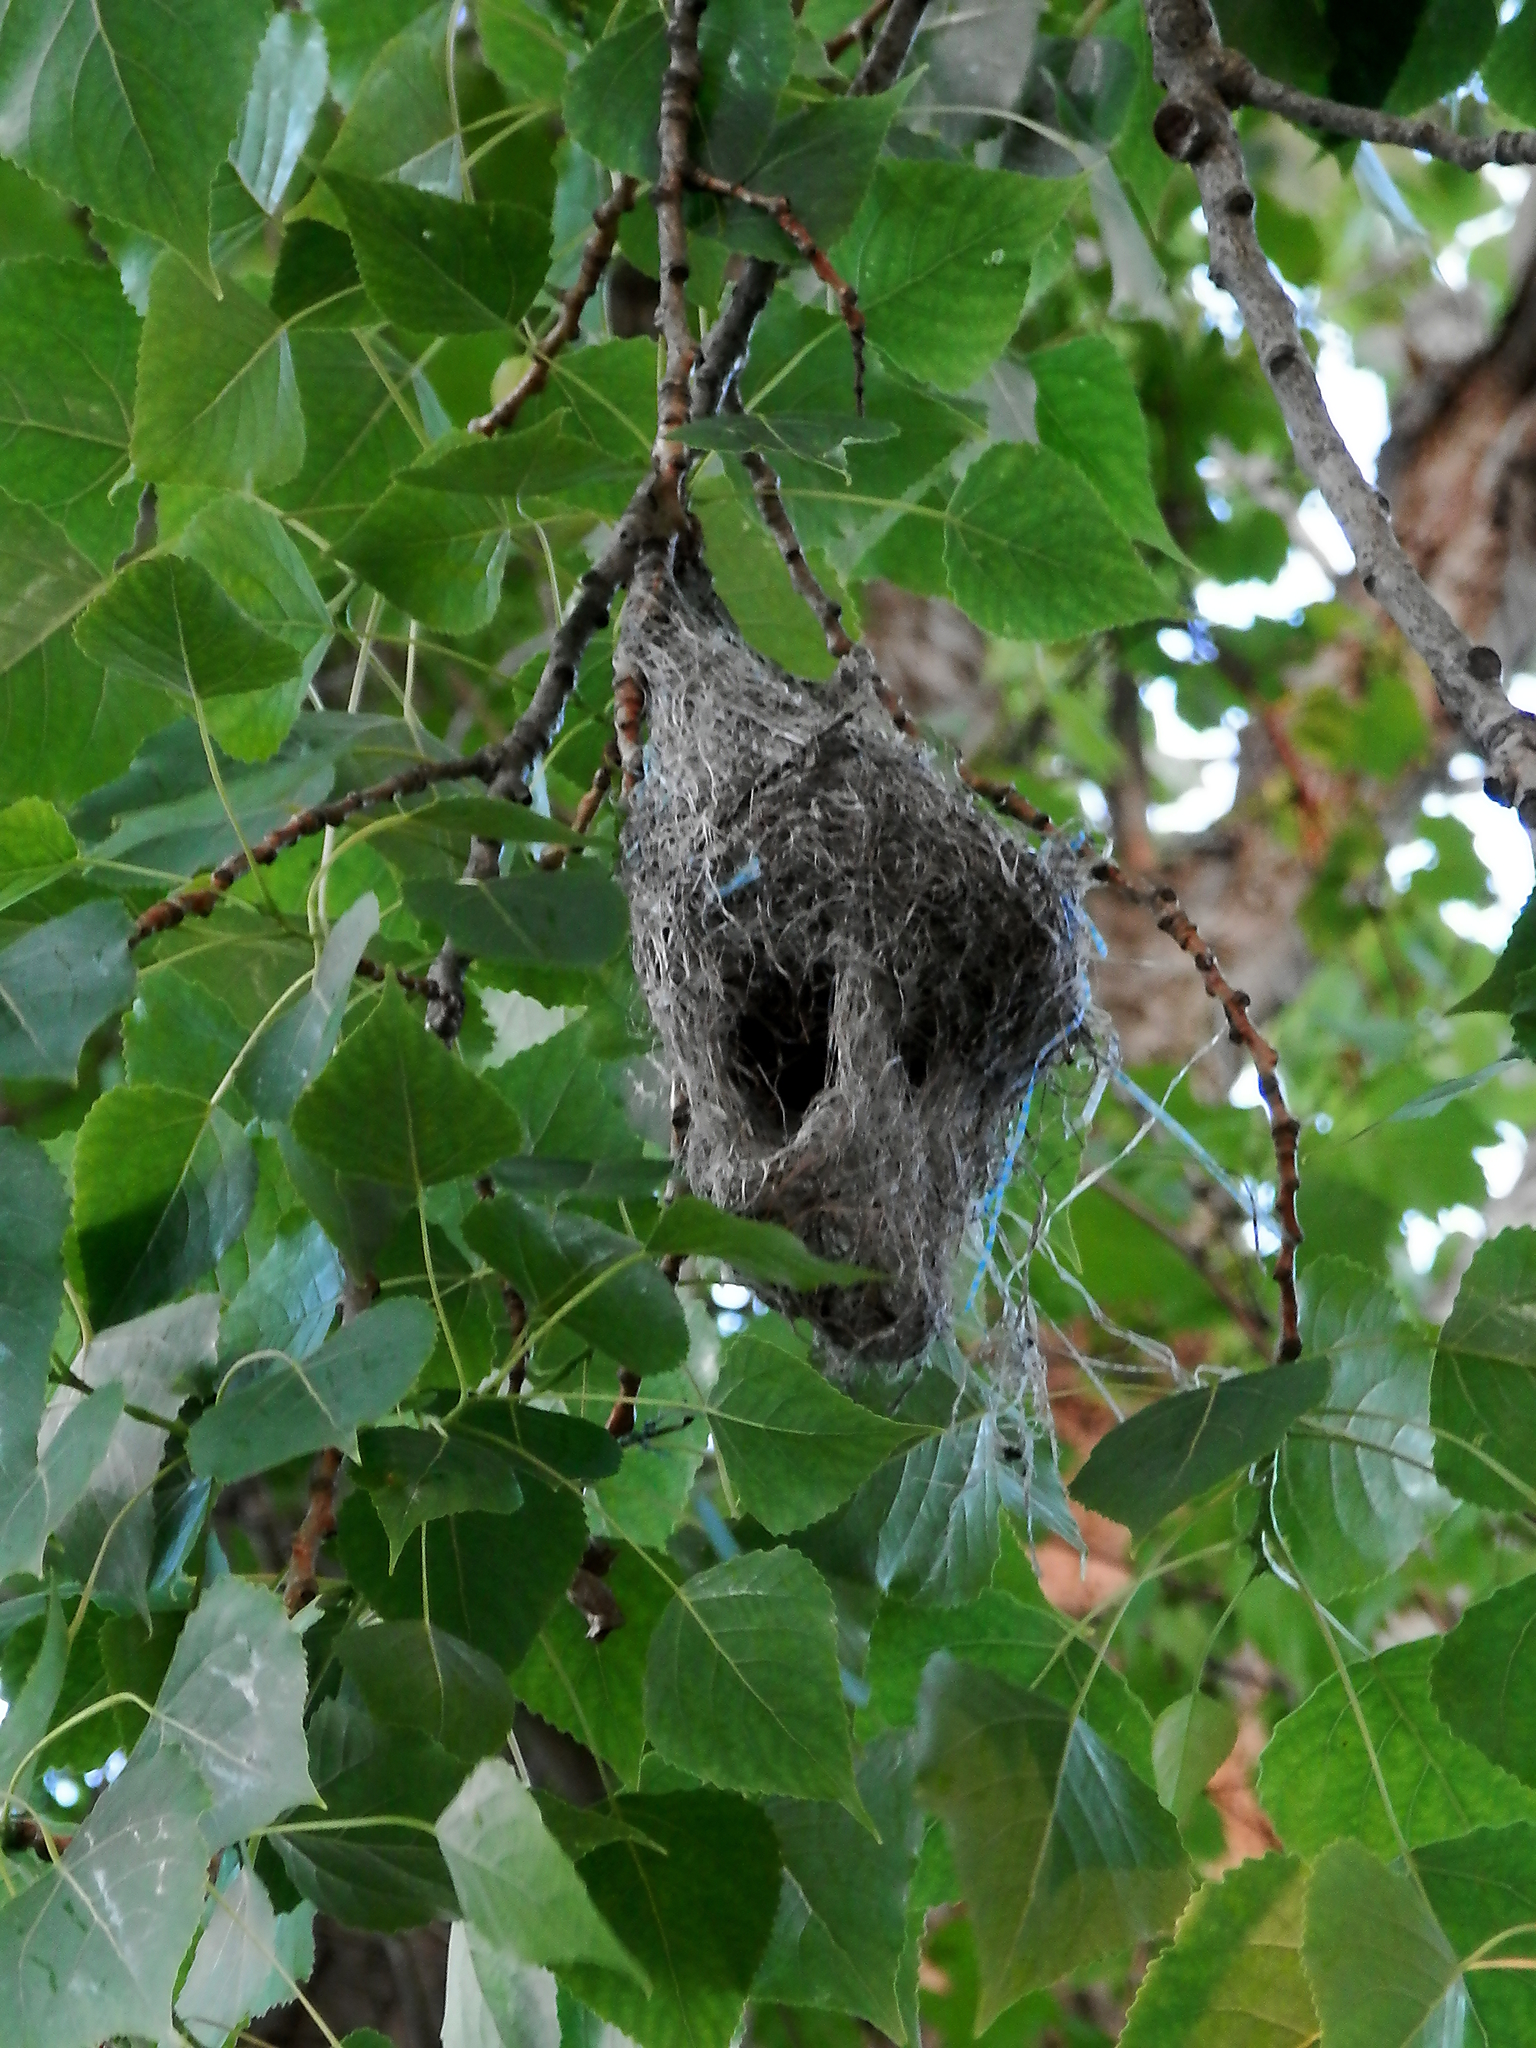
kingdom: Animalia
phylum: Chordata
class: Aves
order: Passeriformes
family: Icteridae
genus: Icterus
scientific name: Icterus galbula
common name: Baltimore oriole
